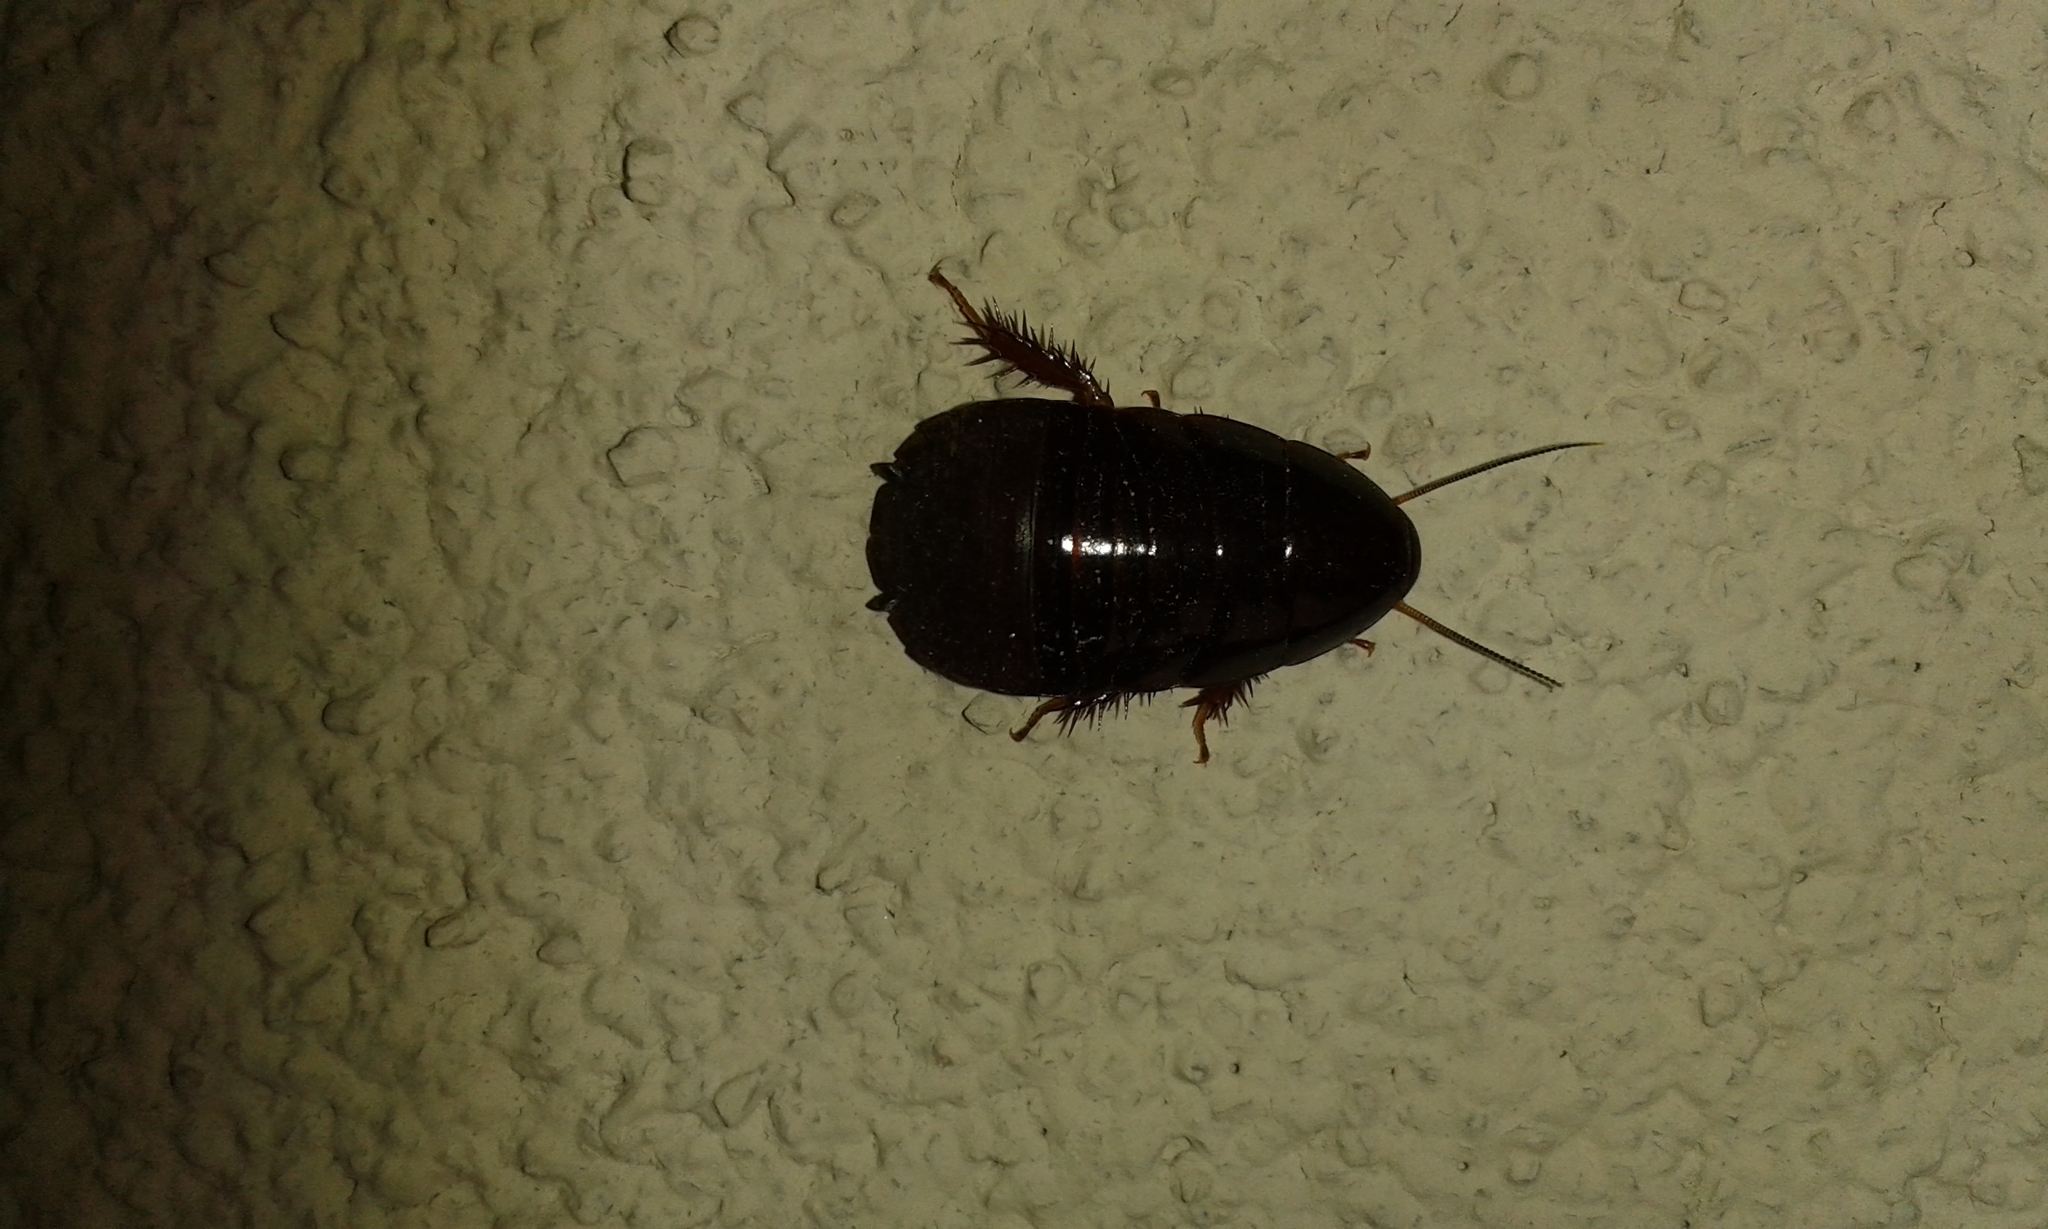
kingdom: Animalia
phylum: Arthropoda
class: Insecta
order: Blattodea
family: Blaberidae
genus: Pycnoscelus
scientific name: Pycnoscelus surinamensis
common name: Surinam cockroach
